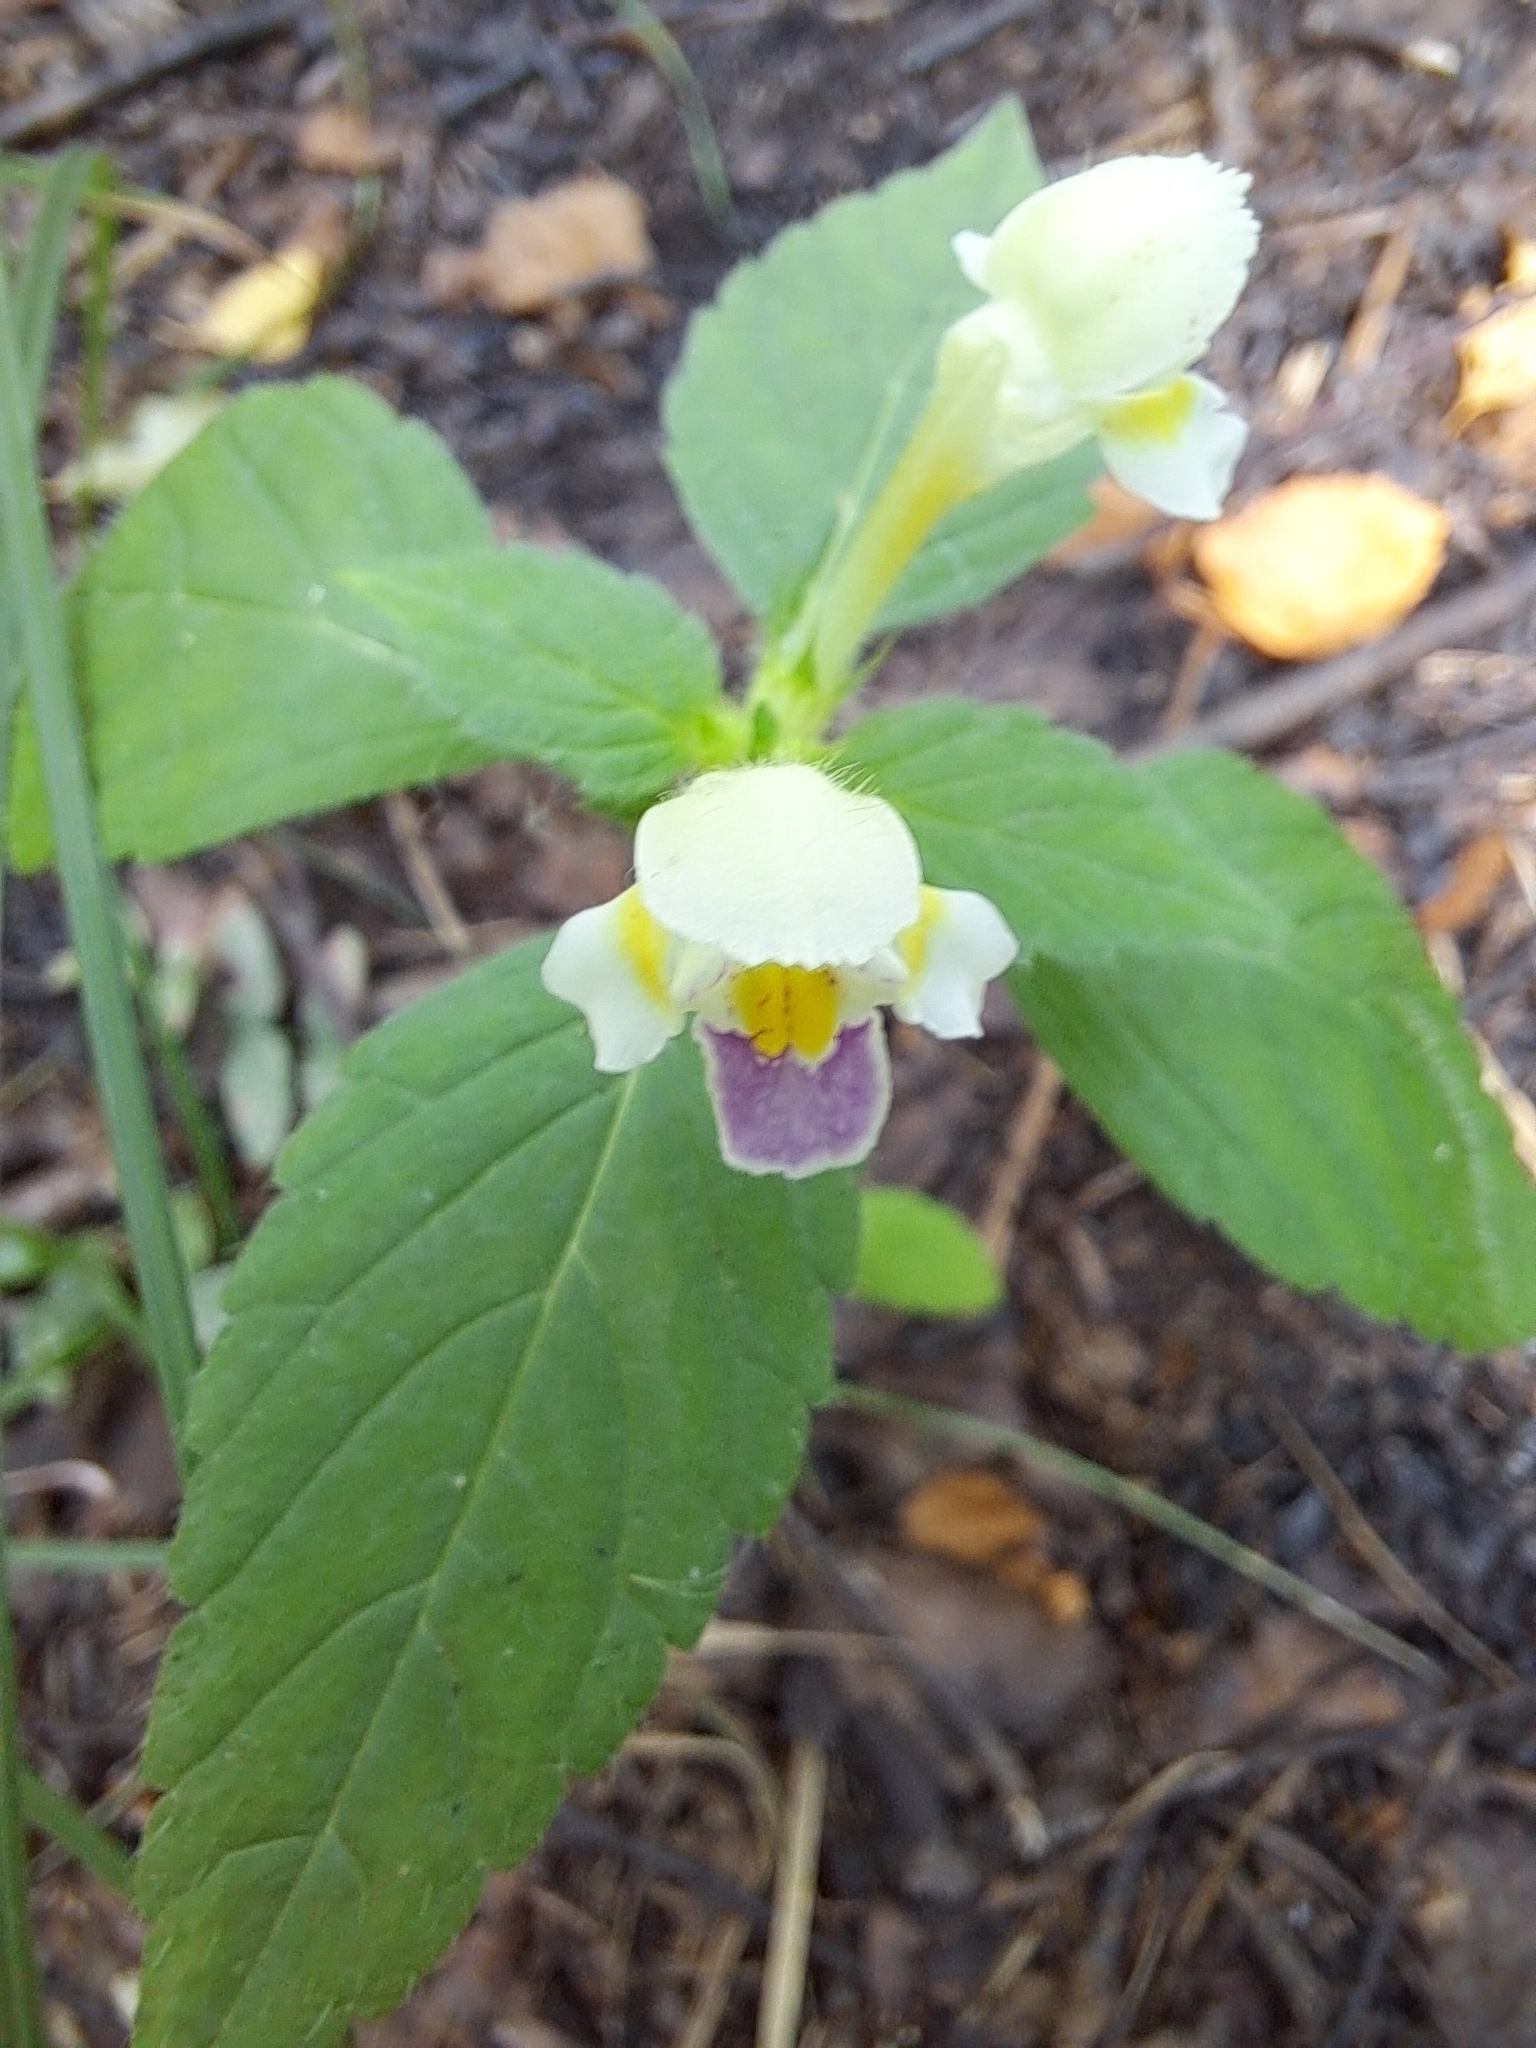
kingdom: Plantae
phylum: Tracheophyta
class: Magnoliopsida
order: Lamiales
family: Lamiaceae
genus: Galeopsis
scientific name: Galeopsis speciosa
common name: Large-flowered hemp-nettle
